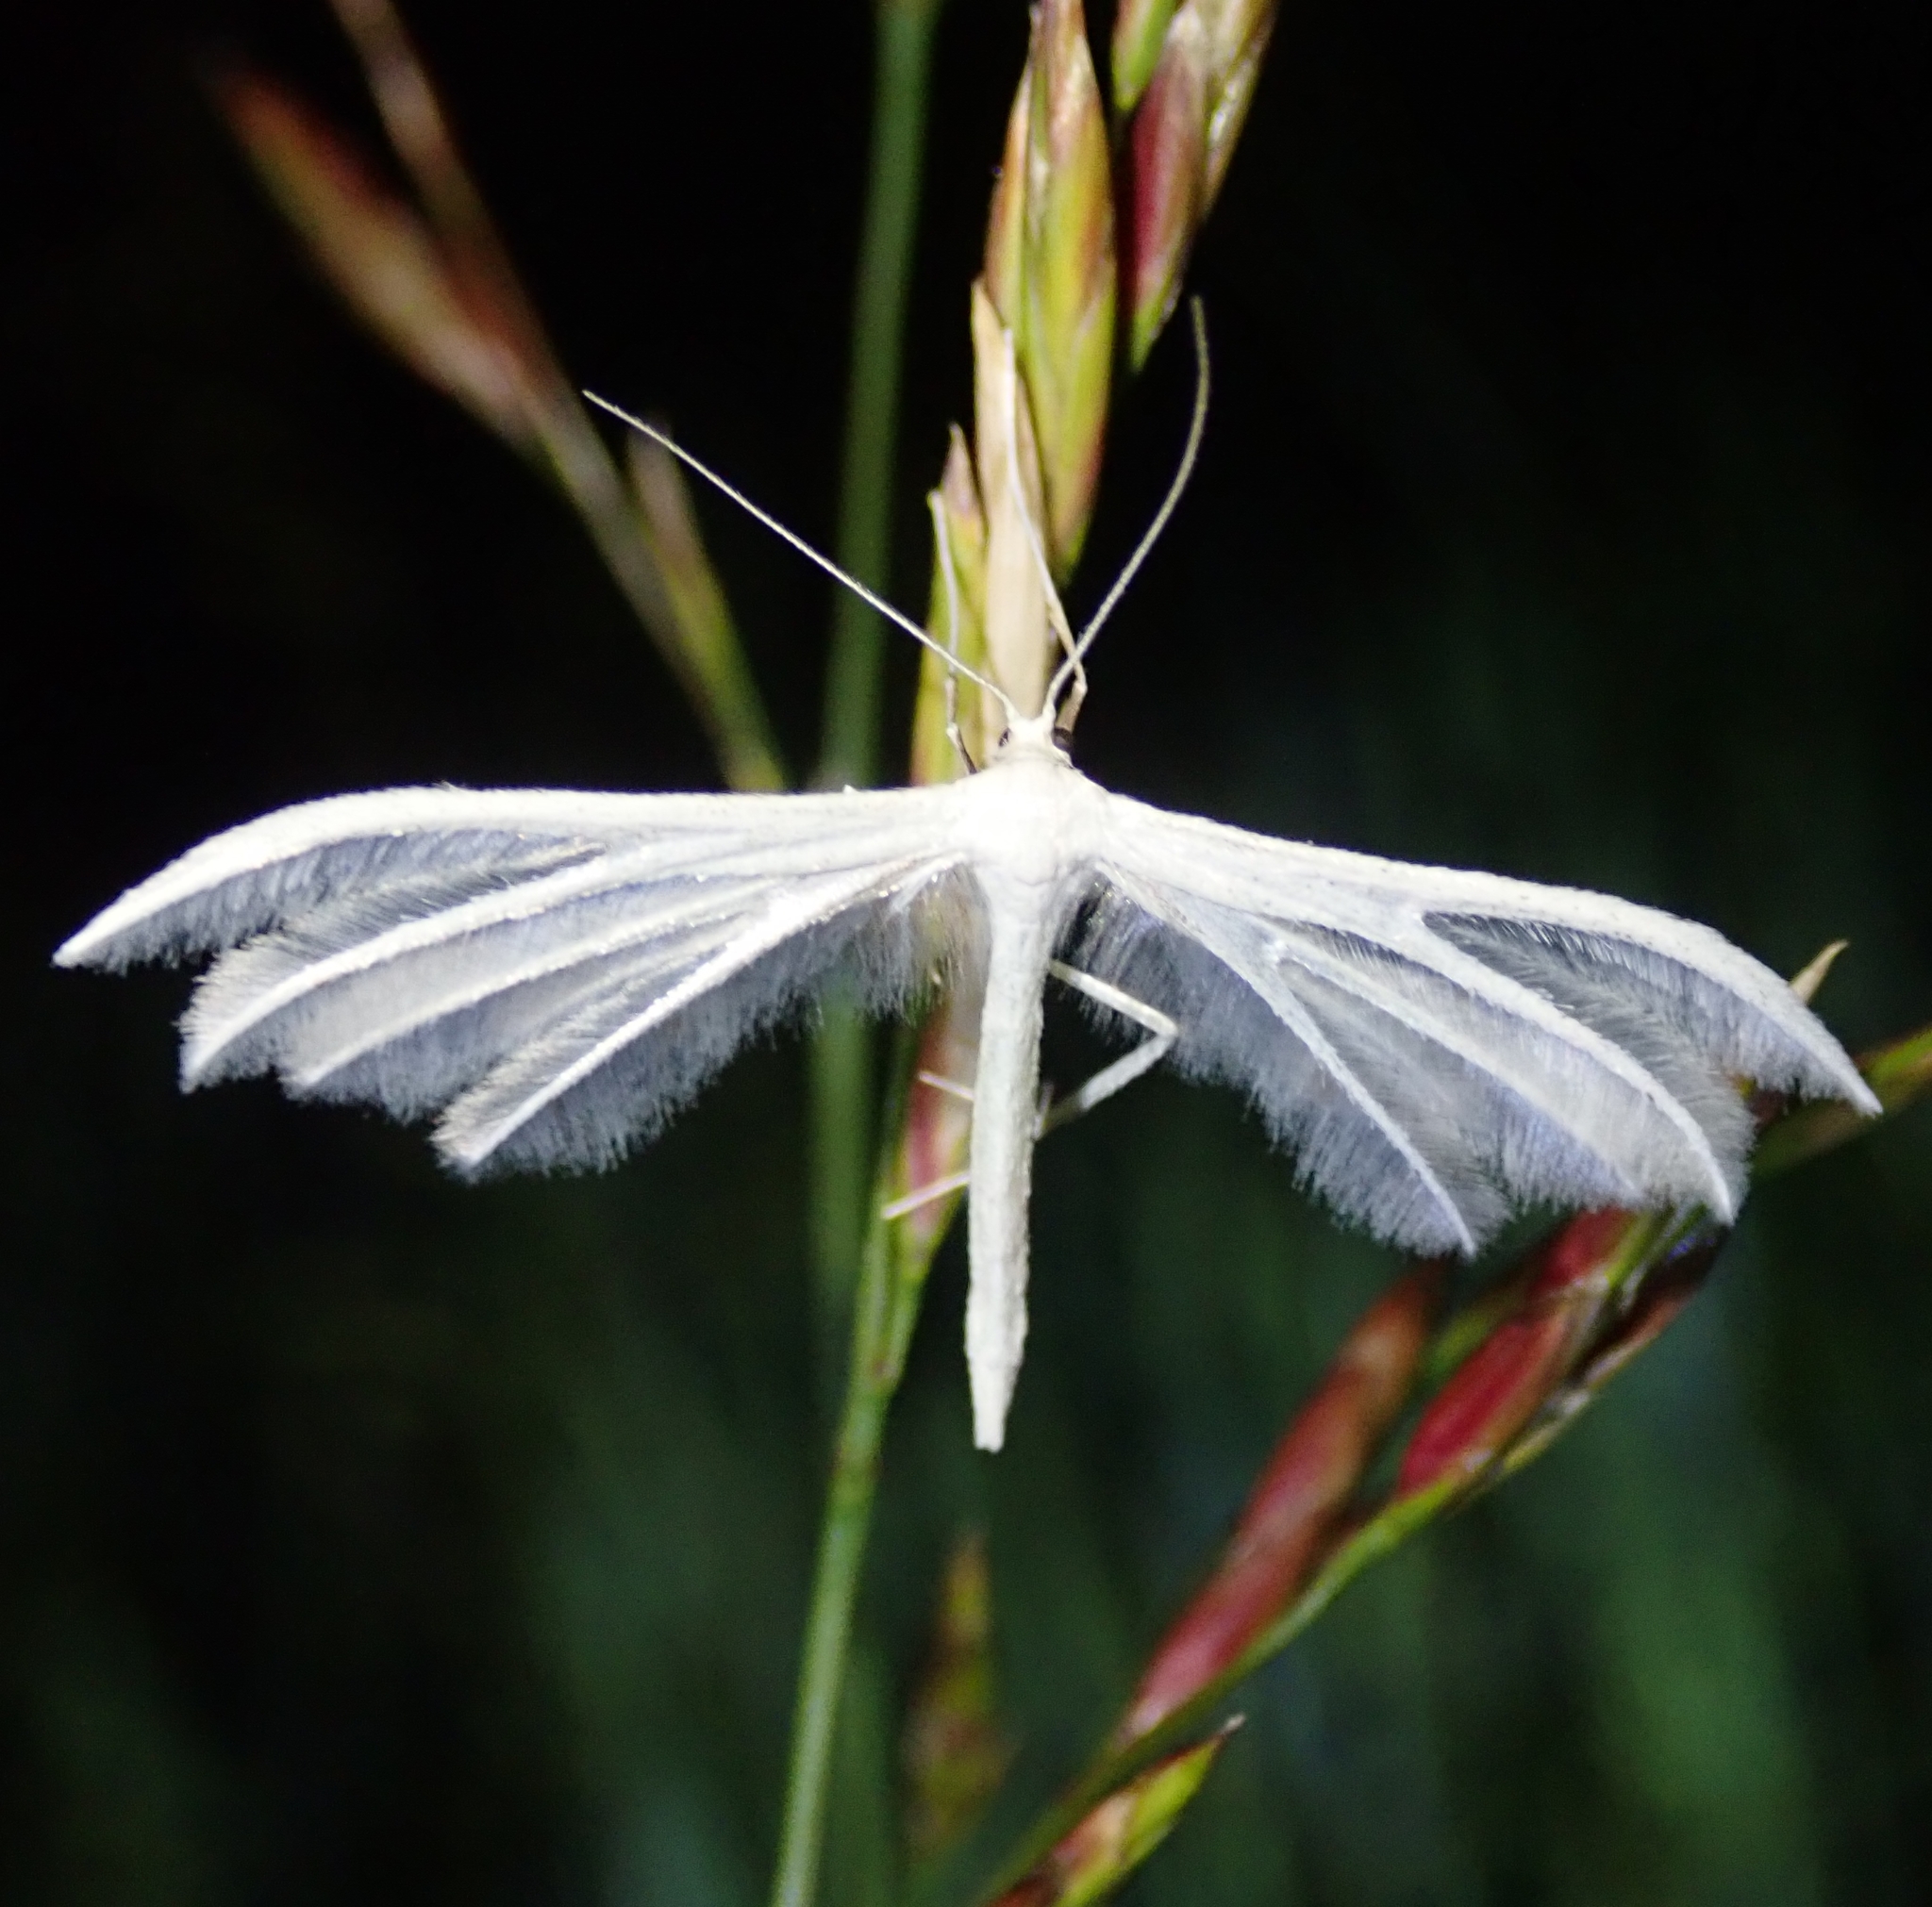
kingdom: Animalia
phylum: Arthropoda
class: Insecta
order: Lepidoptera
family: Pterophoridae
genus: Pterophorus
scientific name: Pterophorus pentadactyla
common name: White plume moth
